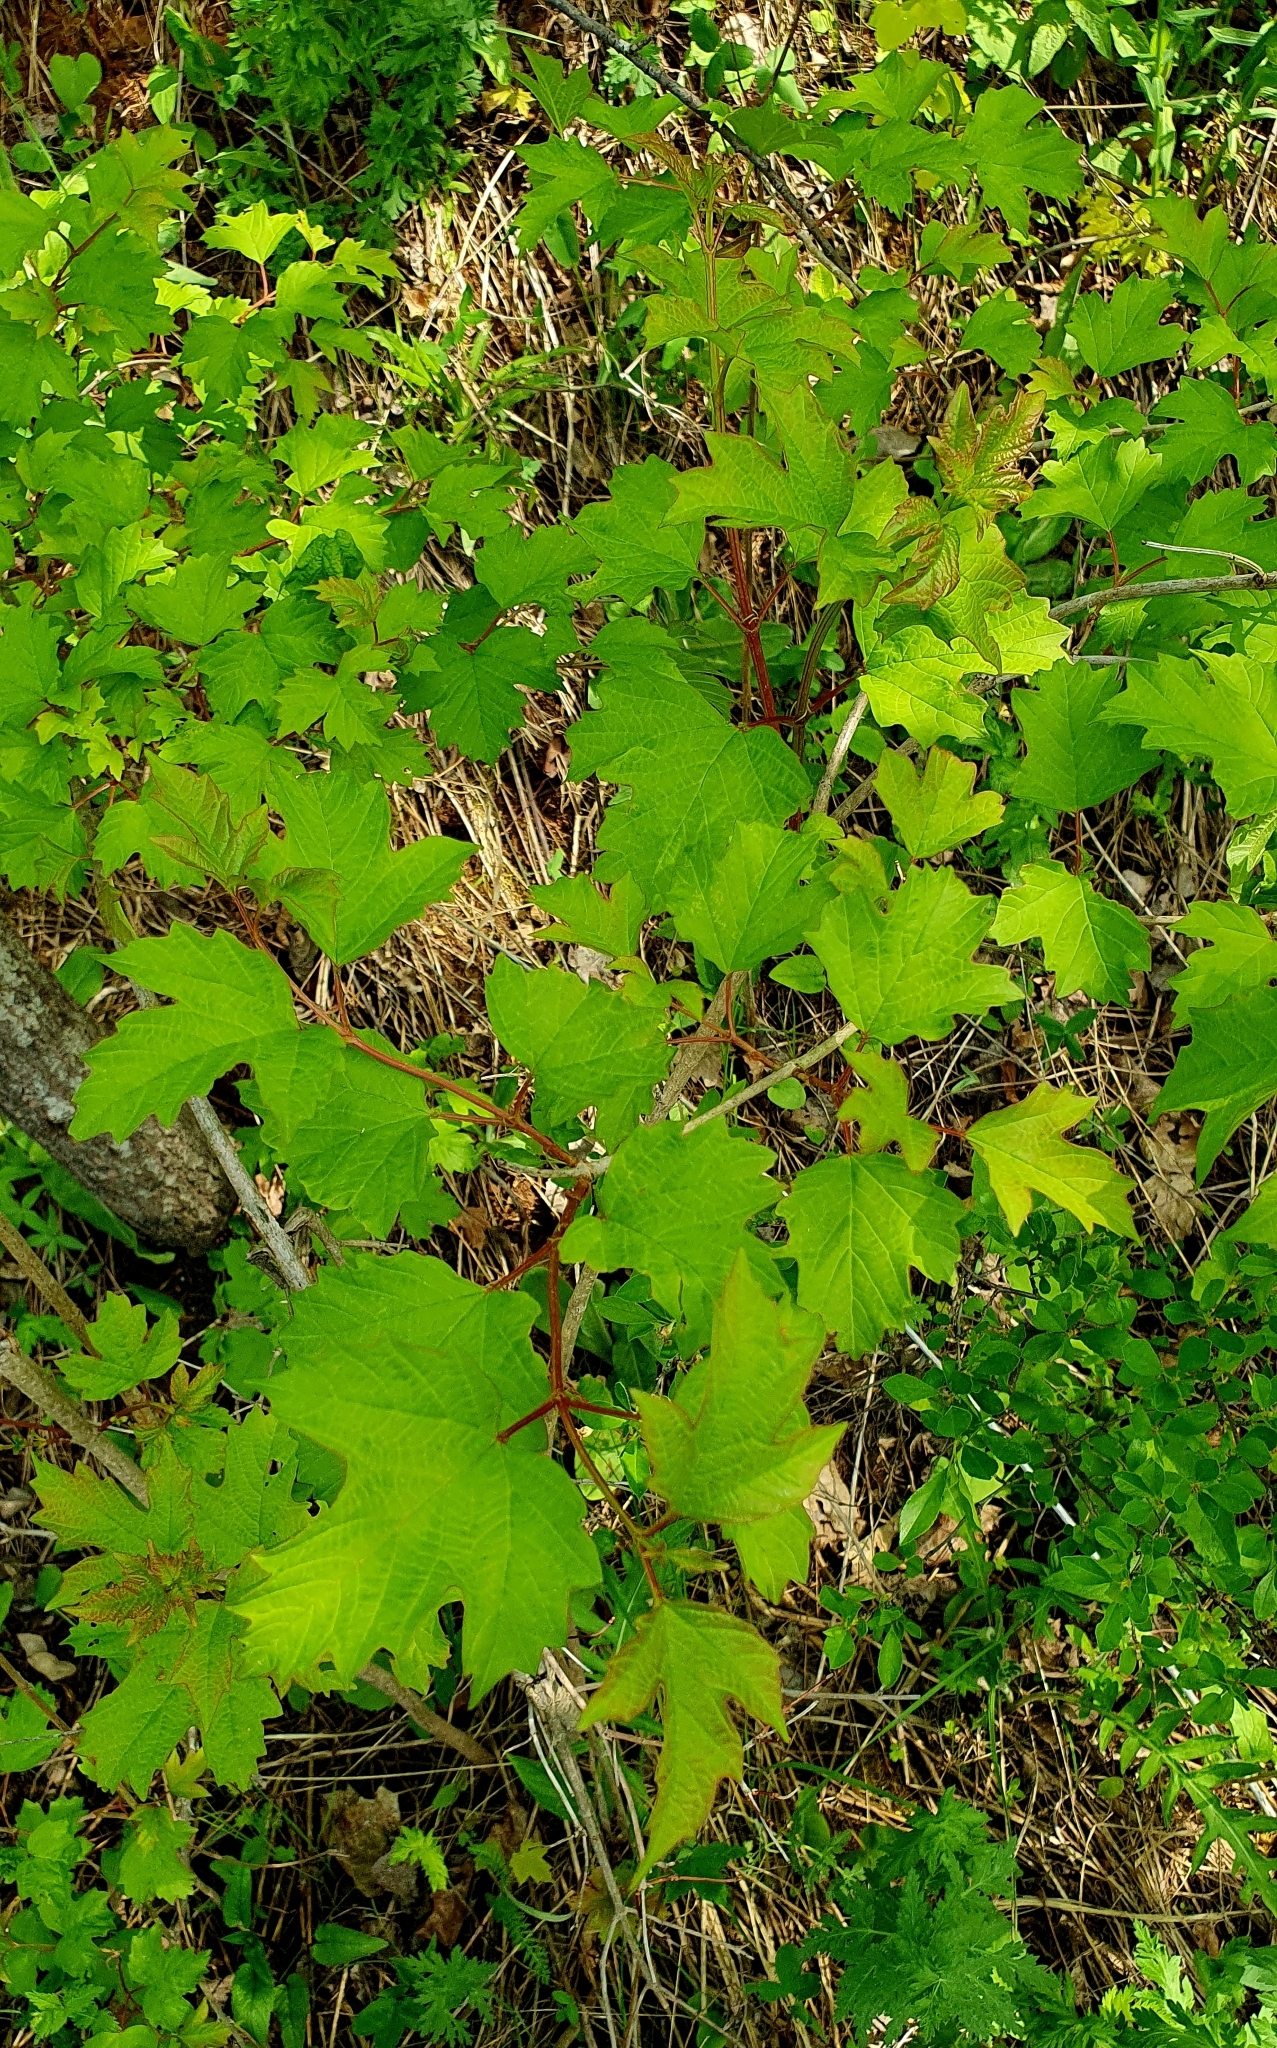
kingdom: Plantae
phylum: Tracheophyta
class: Magnoliopsida
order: Dipsacales
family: Viburnaceae
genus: Viburnum
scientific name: Viburnum opulus
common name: Guelder-rose
